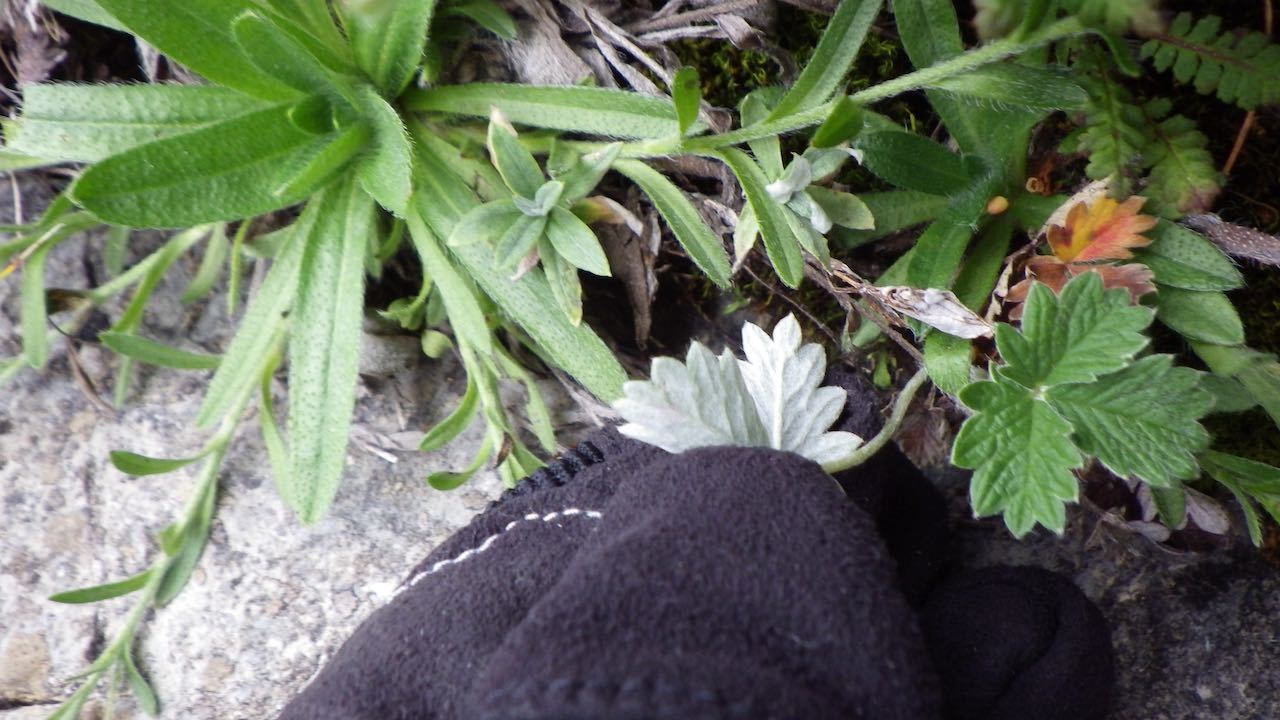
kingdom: Plantae
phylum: Tracheophyta
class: Magnoliopsida
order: Rosales
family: Rosaceae
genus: Potentilla
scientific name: Potentilla nivea
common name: Snow cinquefoil
